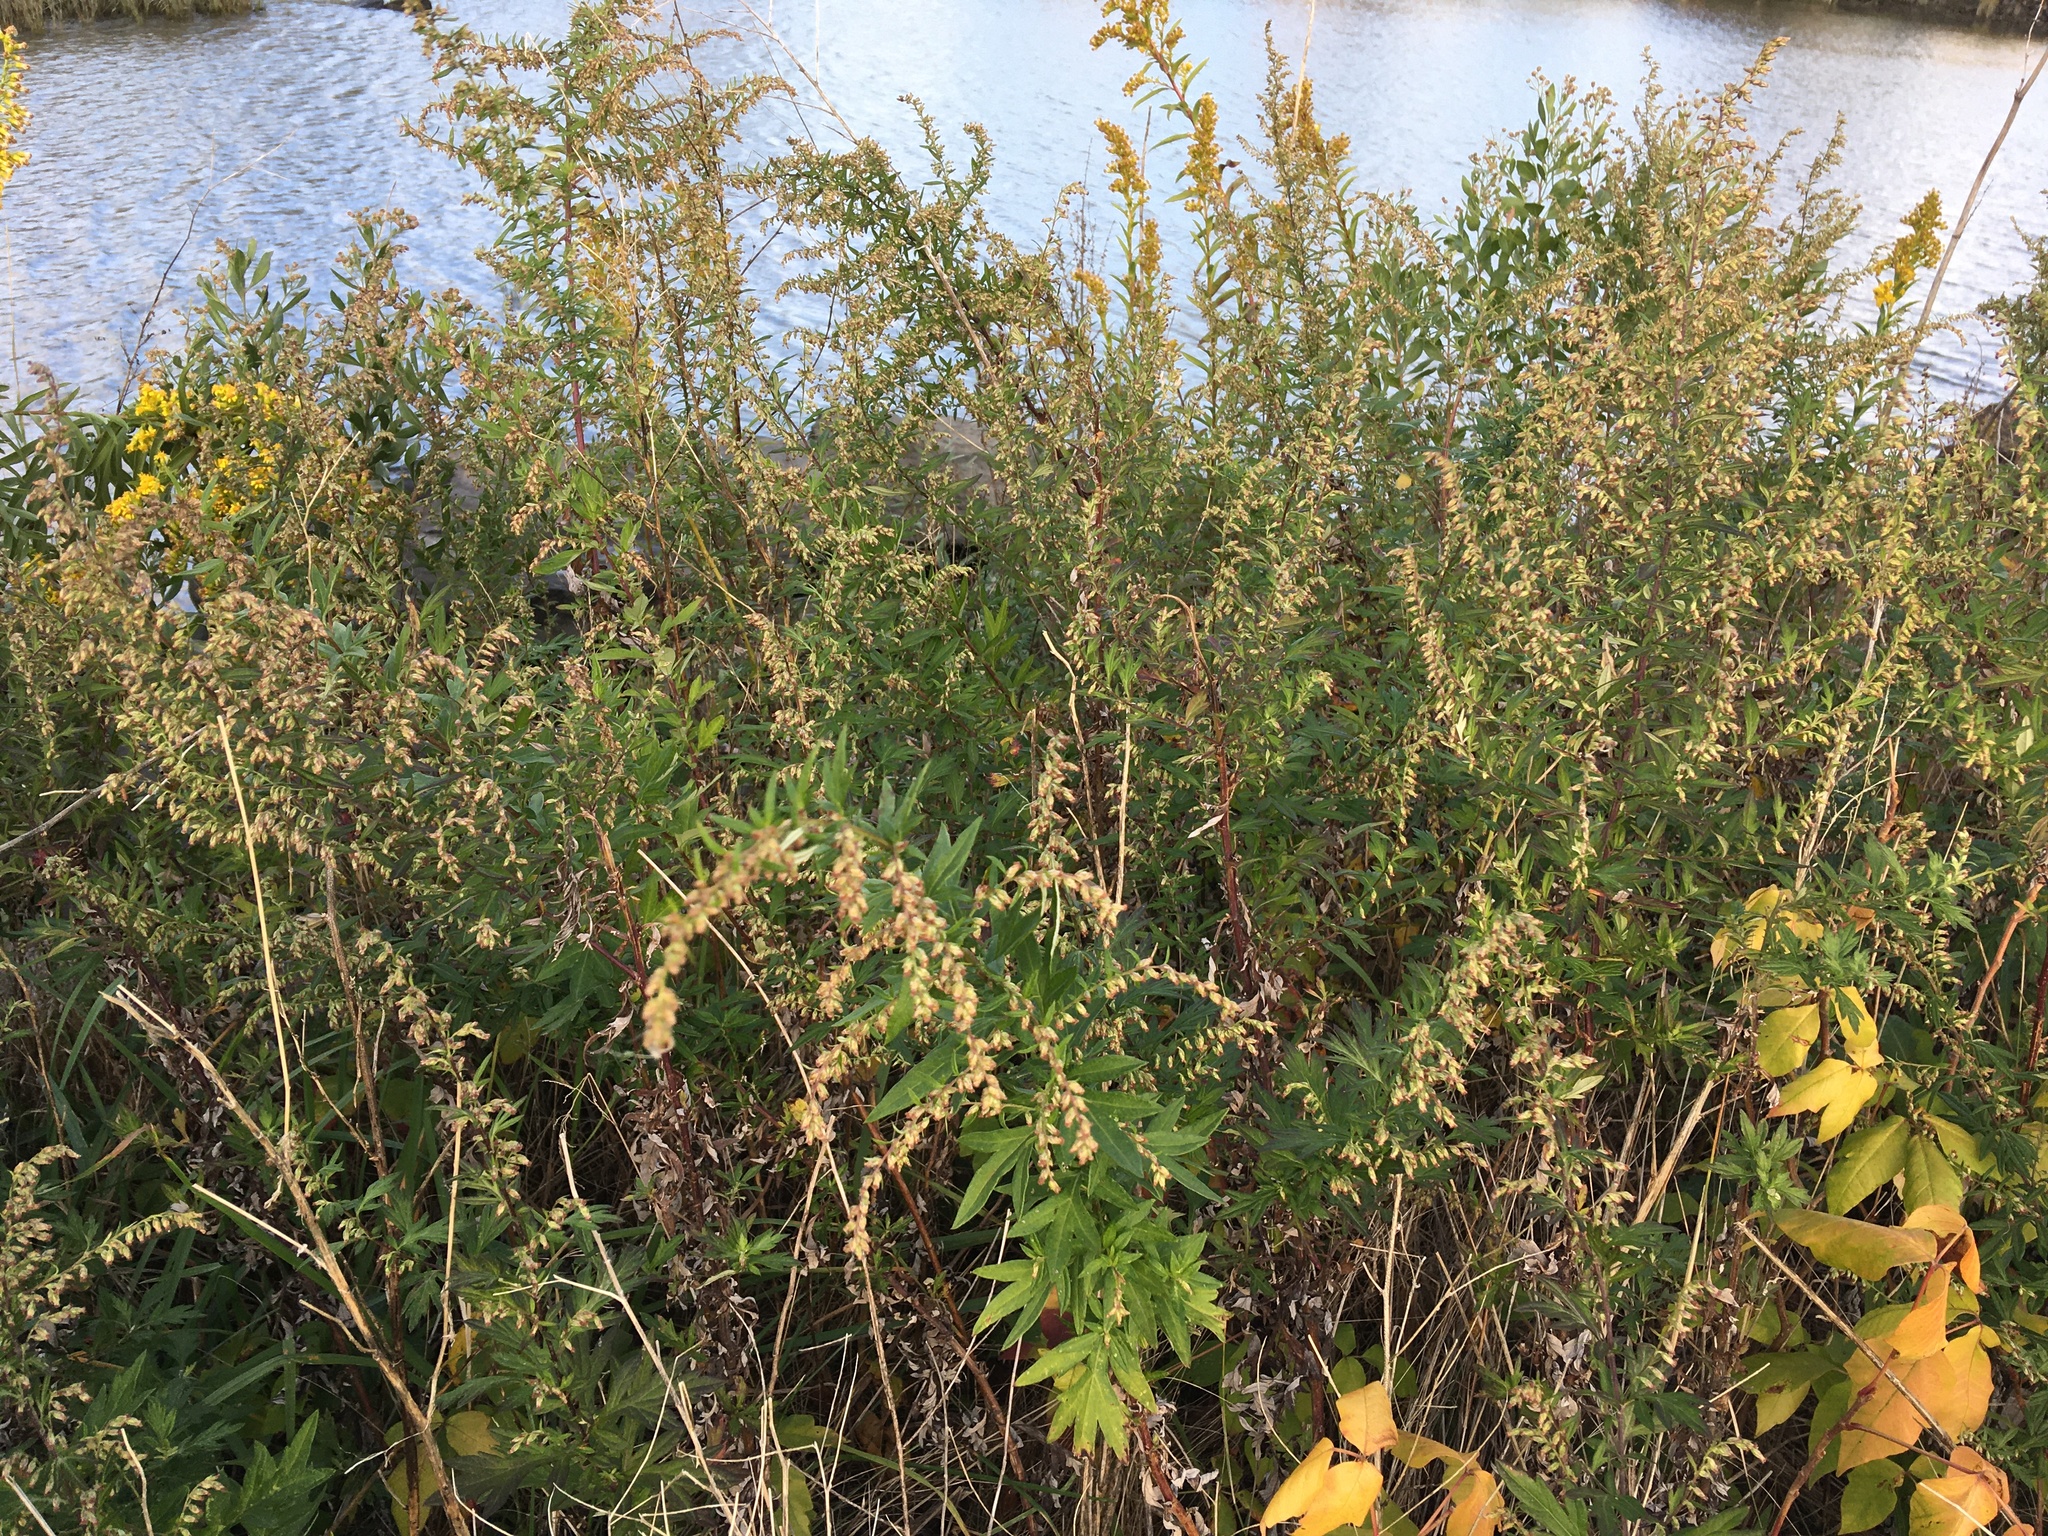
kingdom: Plantae
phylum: Tracheophyta
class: Magnoliopsida
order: Asterales
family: Asteraceae
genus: Artemisia
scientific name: Artemisia vulgaris
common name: Mugwort
